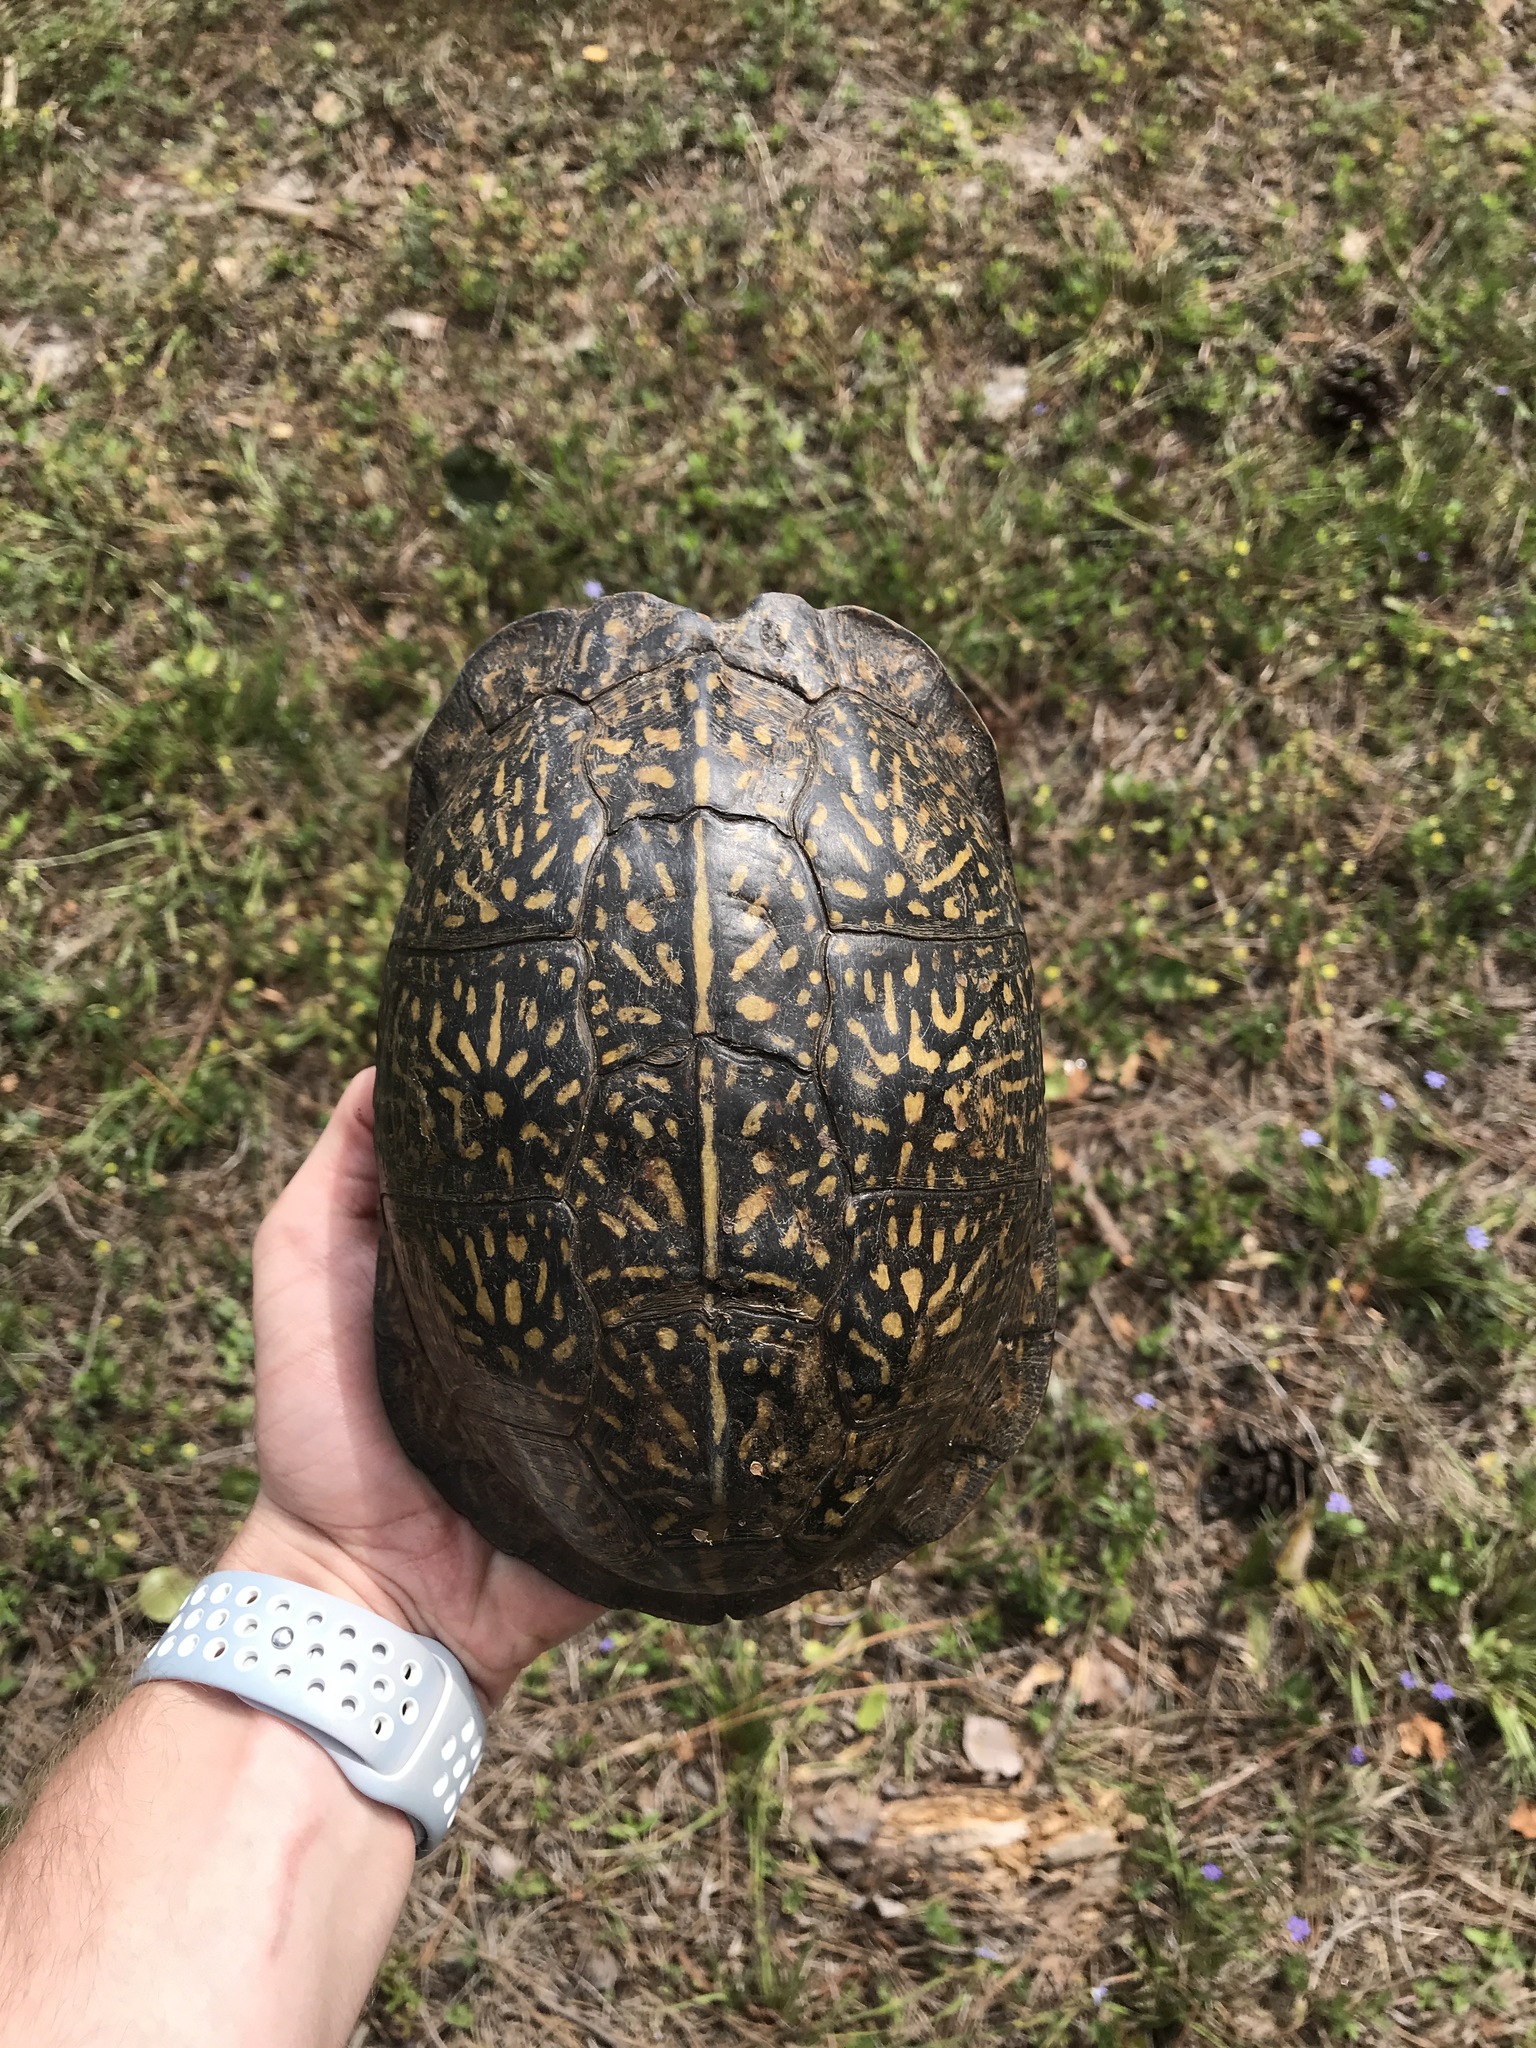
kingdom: Animalia
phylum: Chordata
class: Testudines
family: Emydidae
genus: Terrapene
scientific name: Terrapene carolina
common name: Common box turtle
